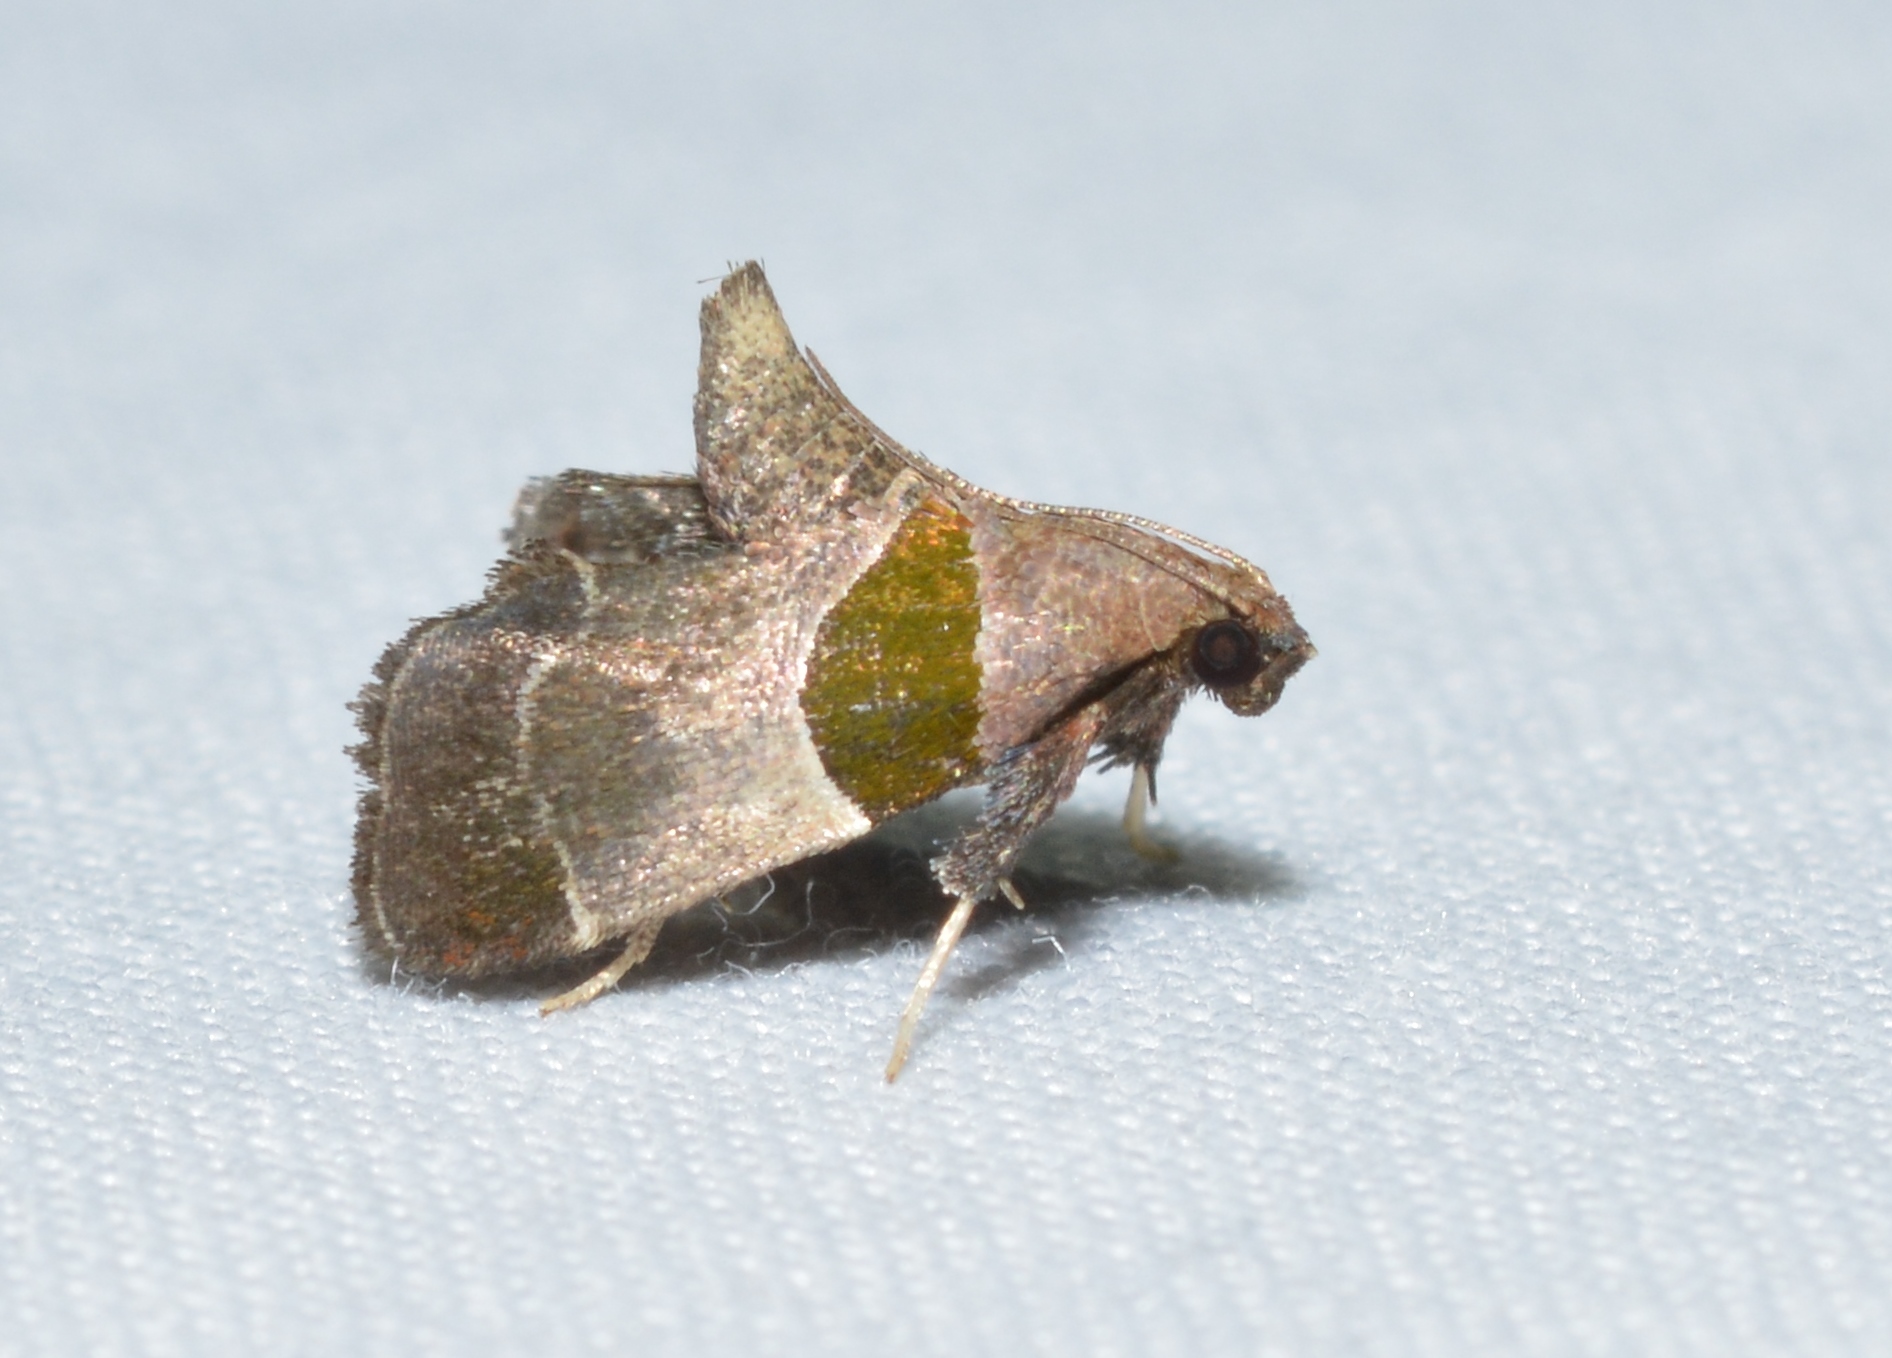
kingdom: Animalia
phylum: Arthropoda
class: Insecta
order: Lepidoptera
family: Pyralidae
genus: Tosale
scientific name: Tosale oviplagalis
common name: Dimorphic tosale moth
